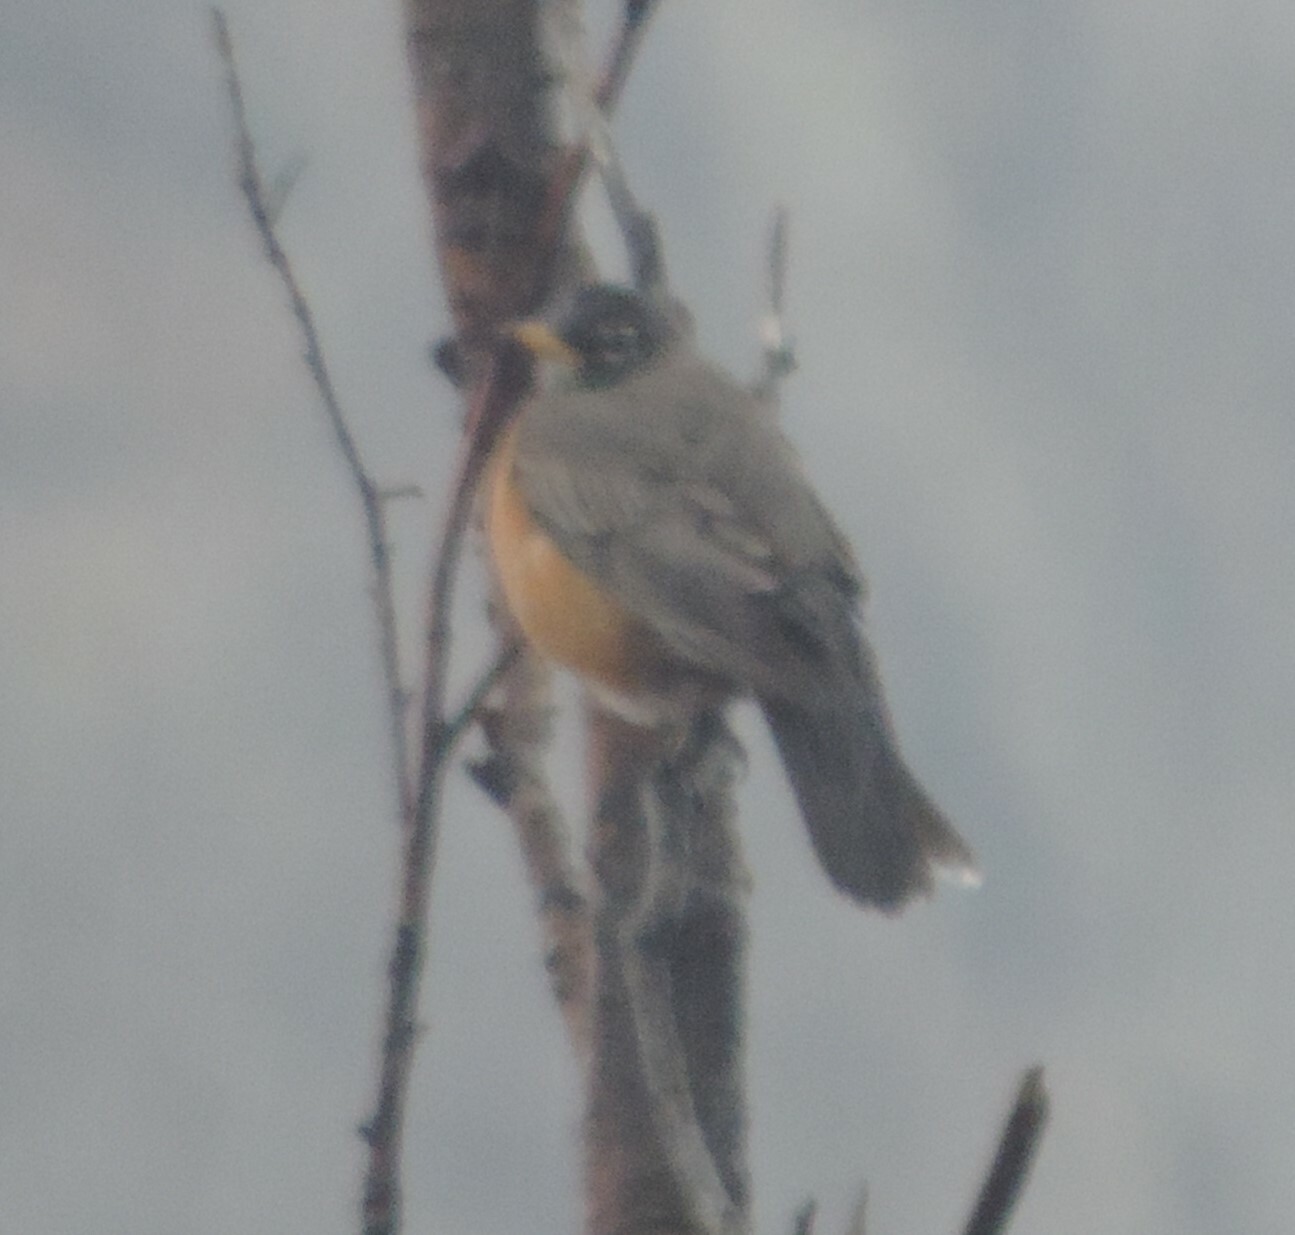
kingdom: Animalia
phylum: Chordata
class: Aves
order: Passeriformes
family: Turdidae
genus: Turdus
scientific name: Turdus migratorius
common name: American robin
